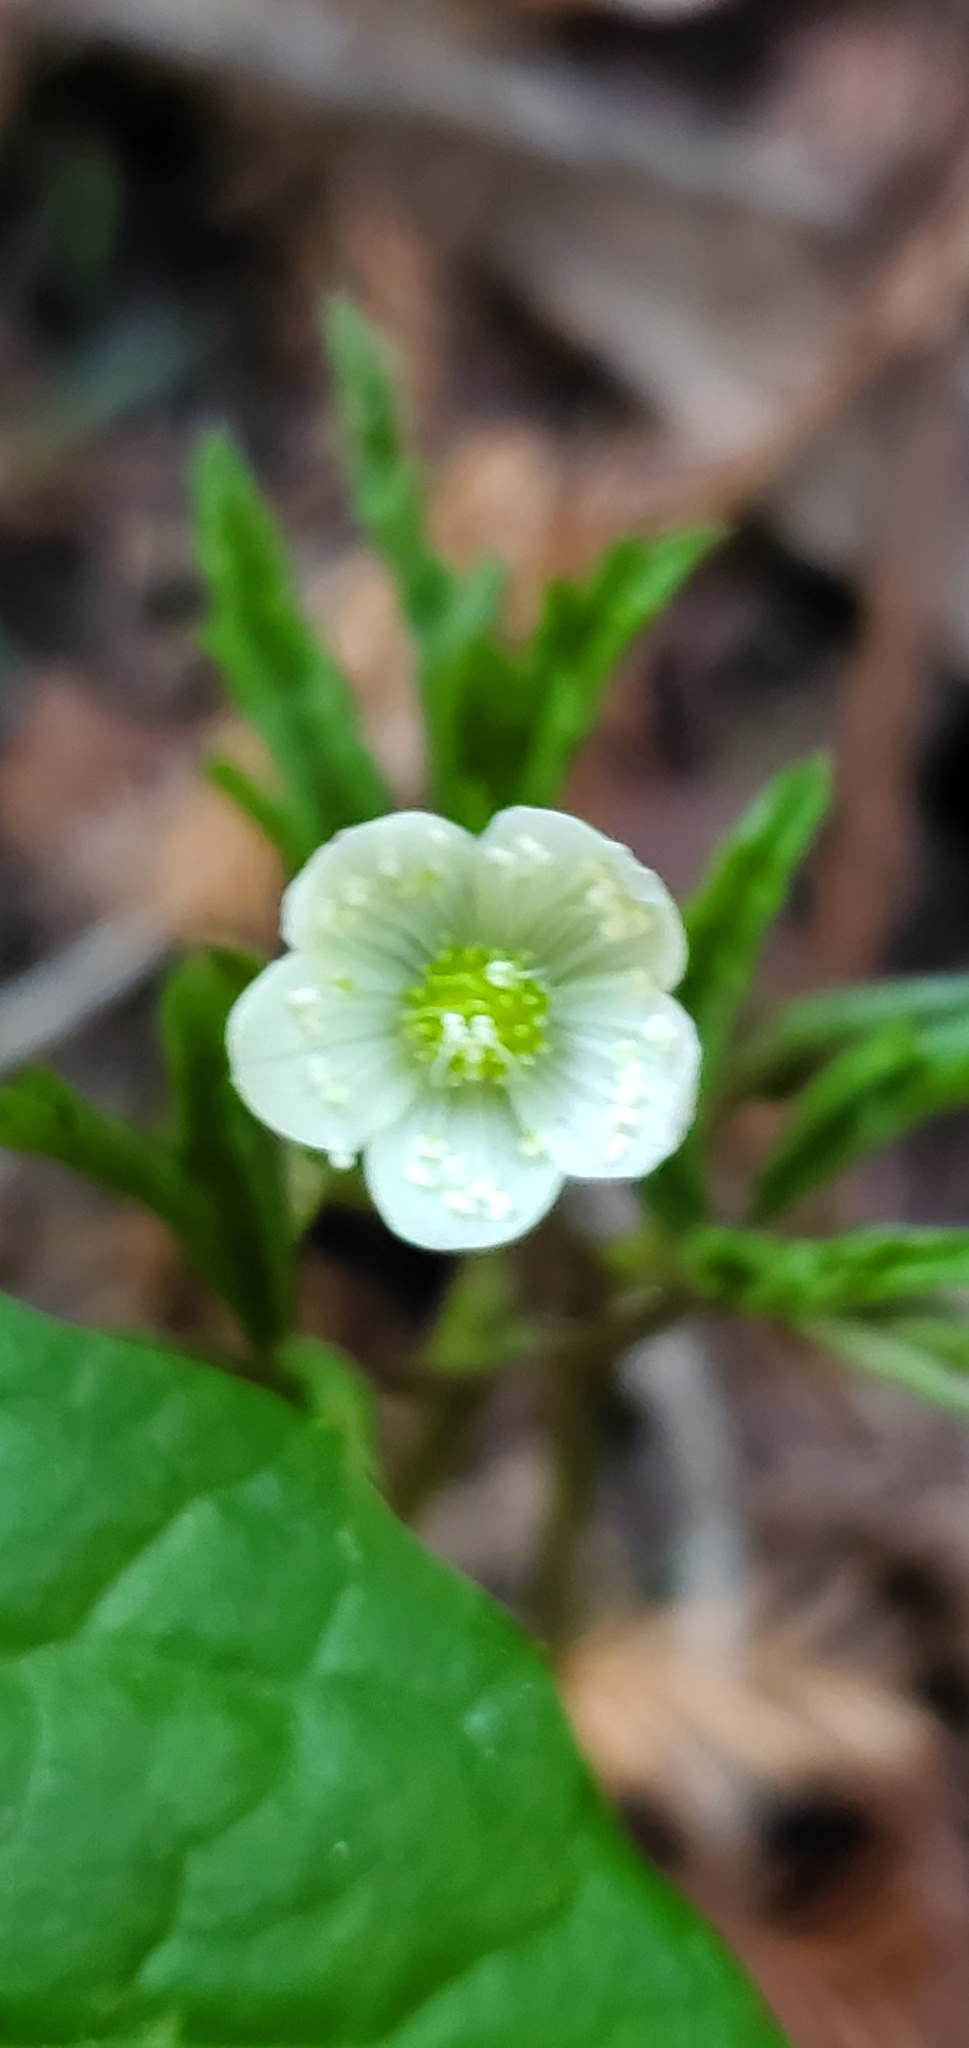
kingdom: Plantae
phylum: Tracheophyta
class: Magnoliopsida
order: Ranunculales
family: Ranunculaceae
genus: Anemone
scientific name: Anemone
